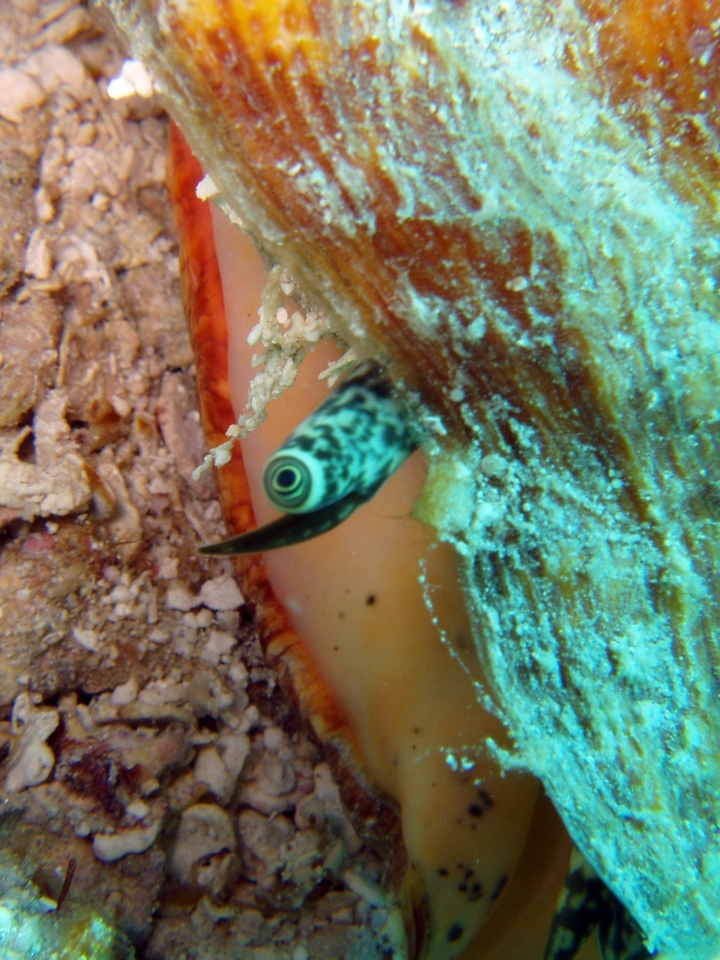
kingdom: Animalia
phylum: Mollusca
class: Gastropoda
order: Littorinimorpha
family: Strombidae
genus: Aliger
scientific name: Aliger gigas
